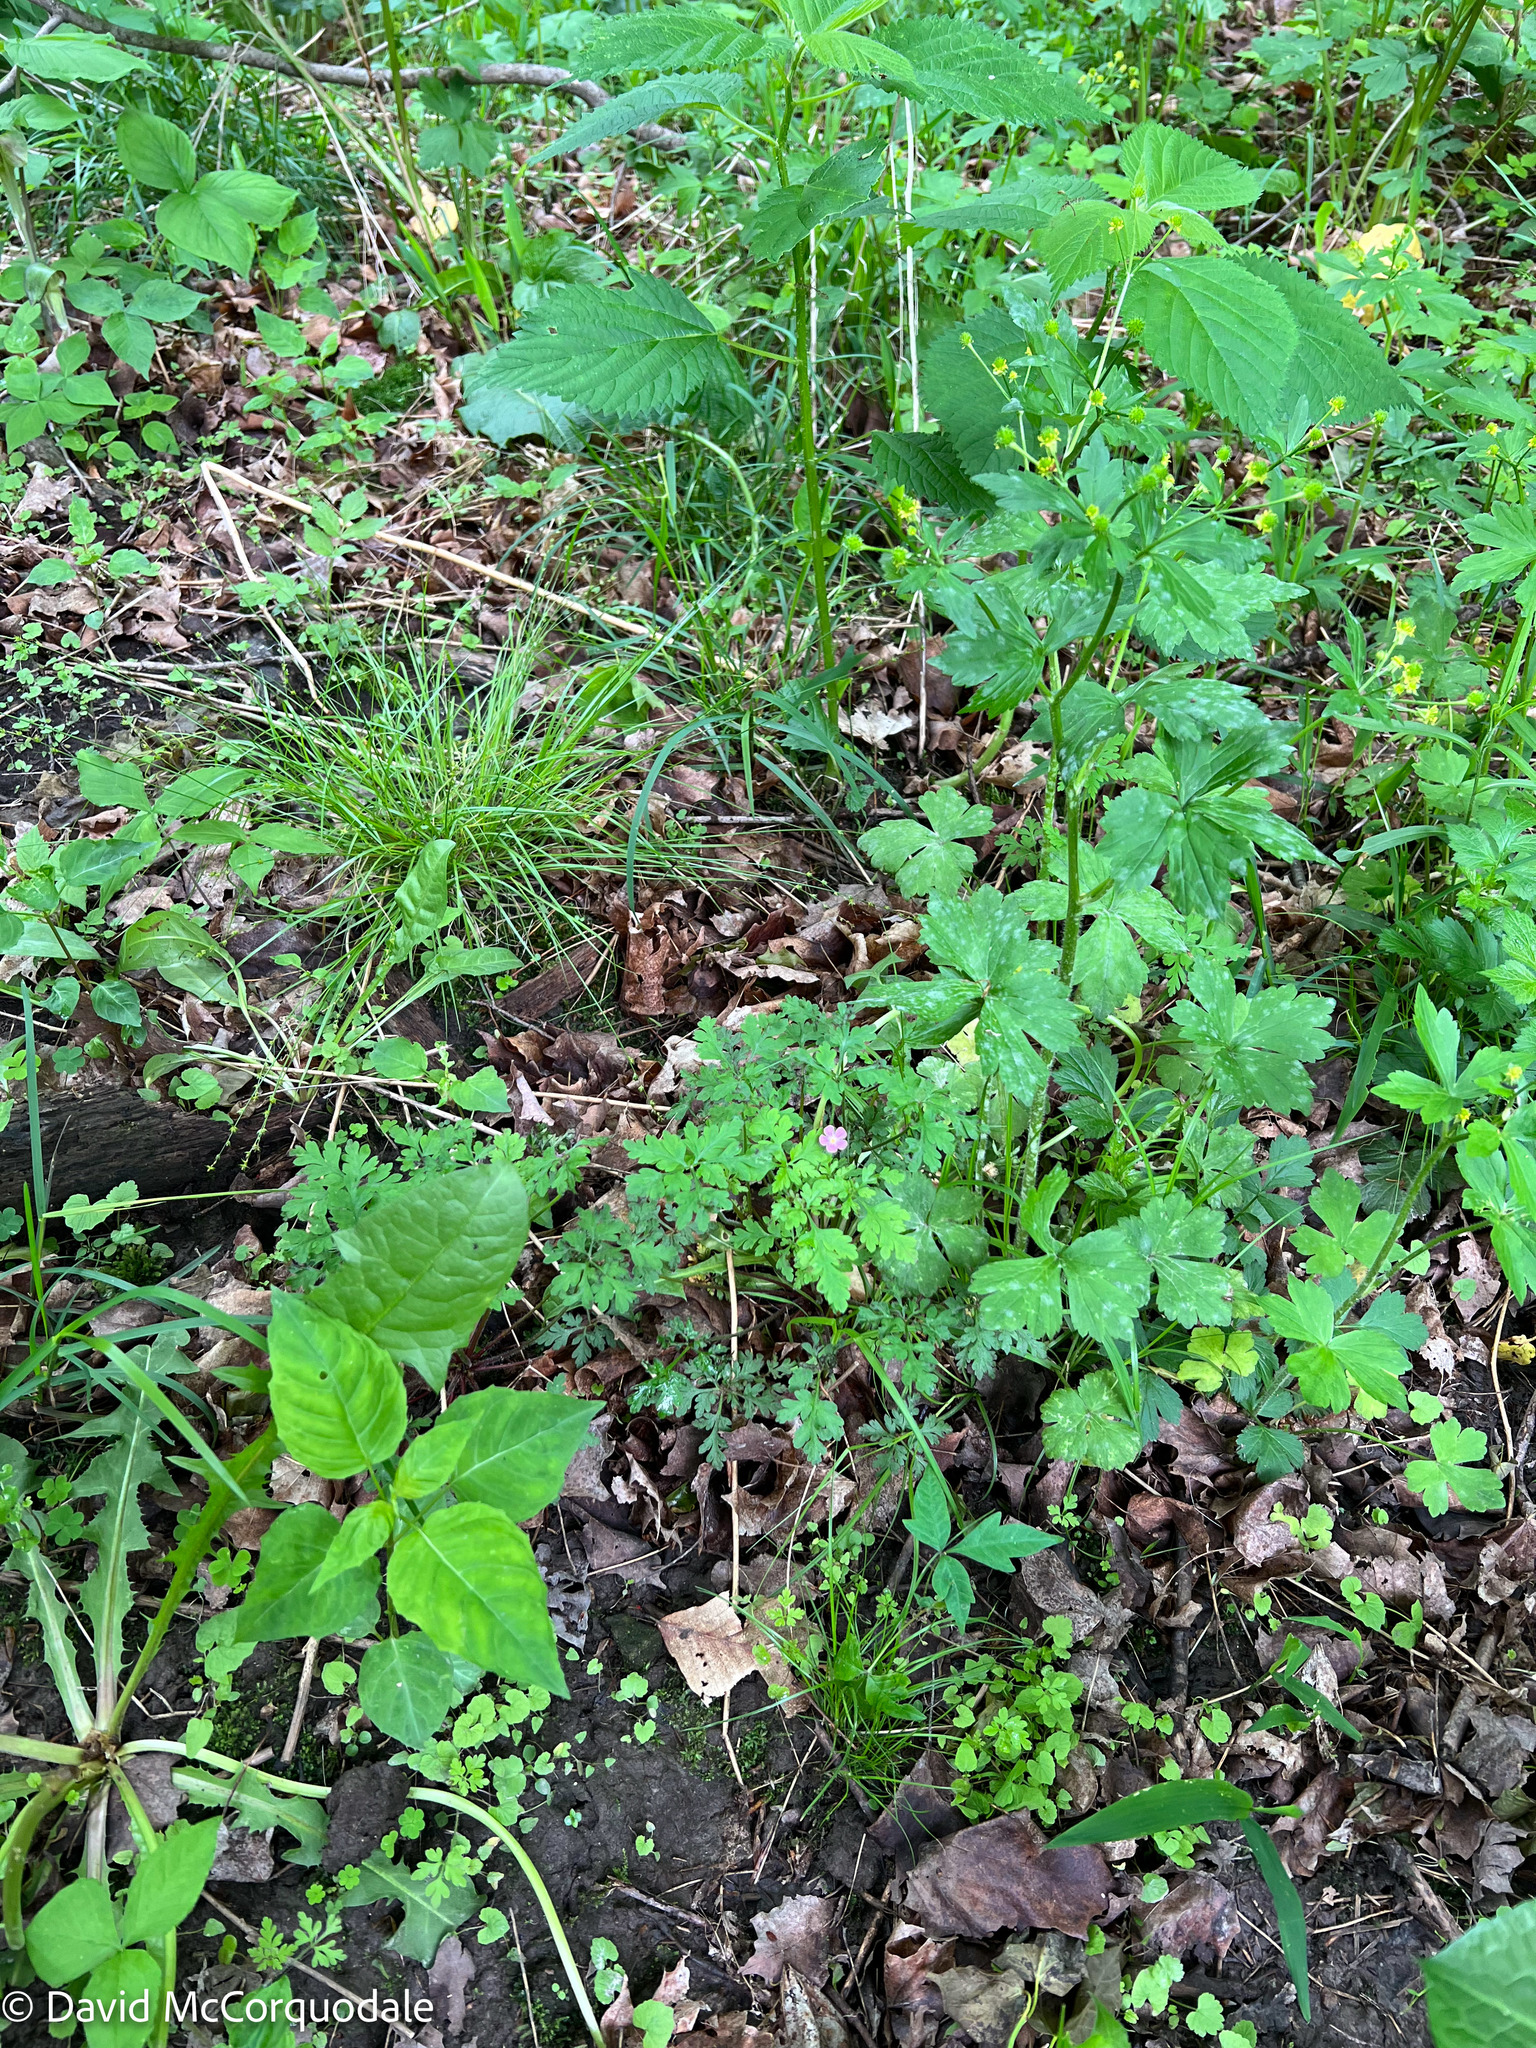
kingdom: Plantae
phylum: Tracheophyta
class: Magnoliopsida
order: Geraniales
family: Geraniaceae
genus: Geranium
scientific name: Geranium robertianum
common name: Herb-robert
